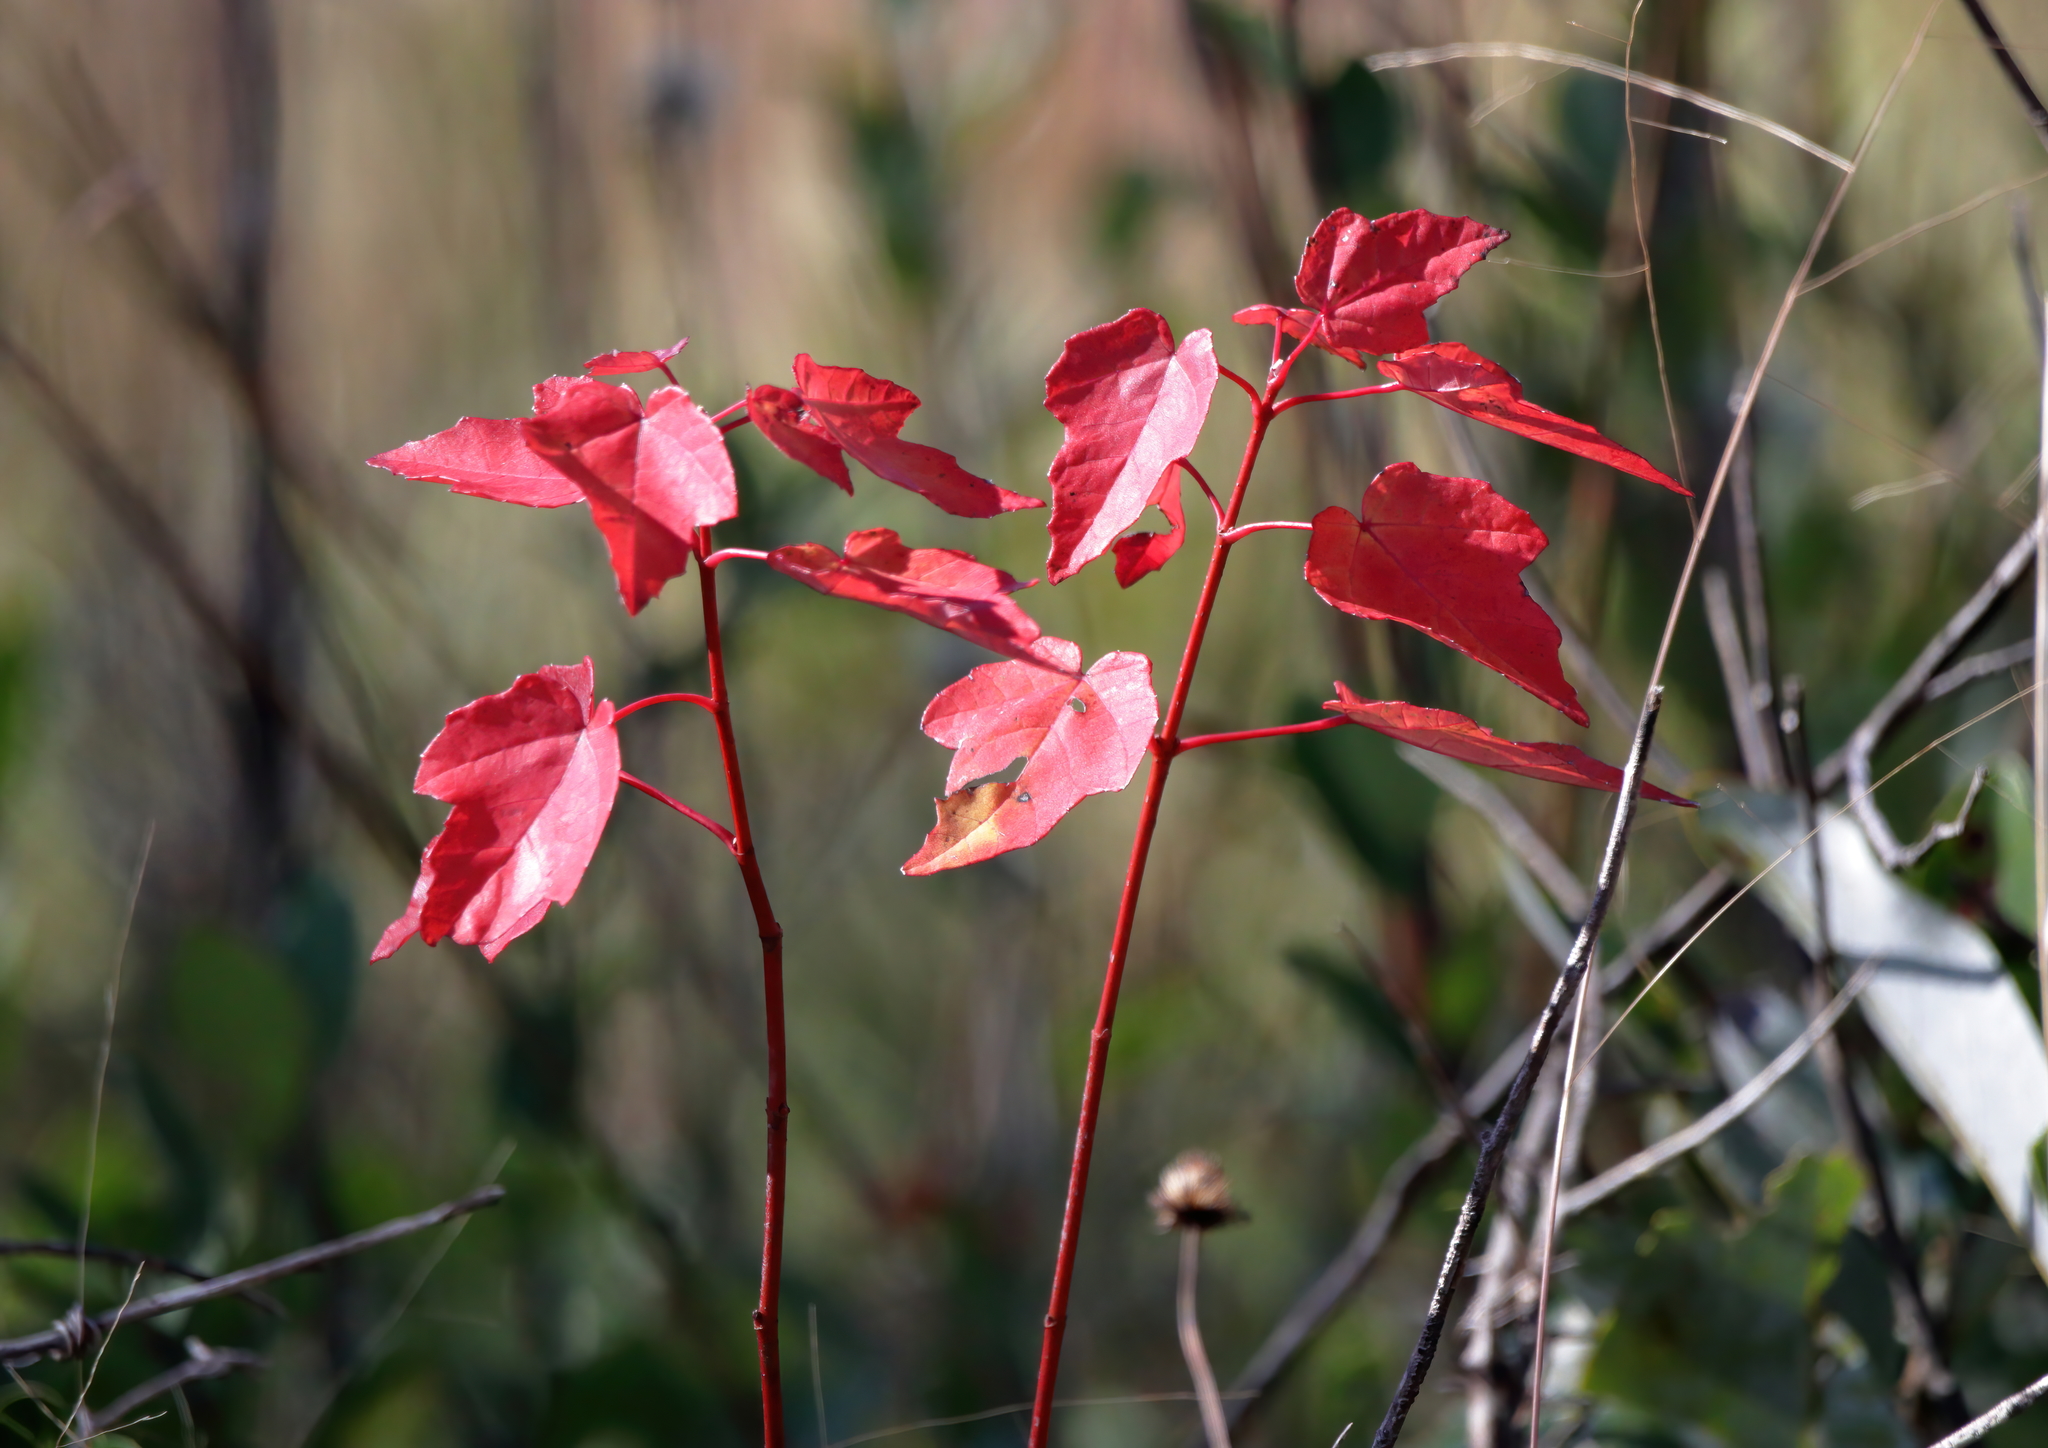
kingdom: Plantae
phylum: Tracheophyta
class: Magnoliopsida
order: Sapindales
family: Sapindaceae
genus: Acer
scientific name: Acer rubrum
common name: Red maple
